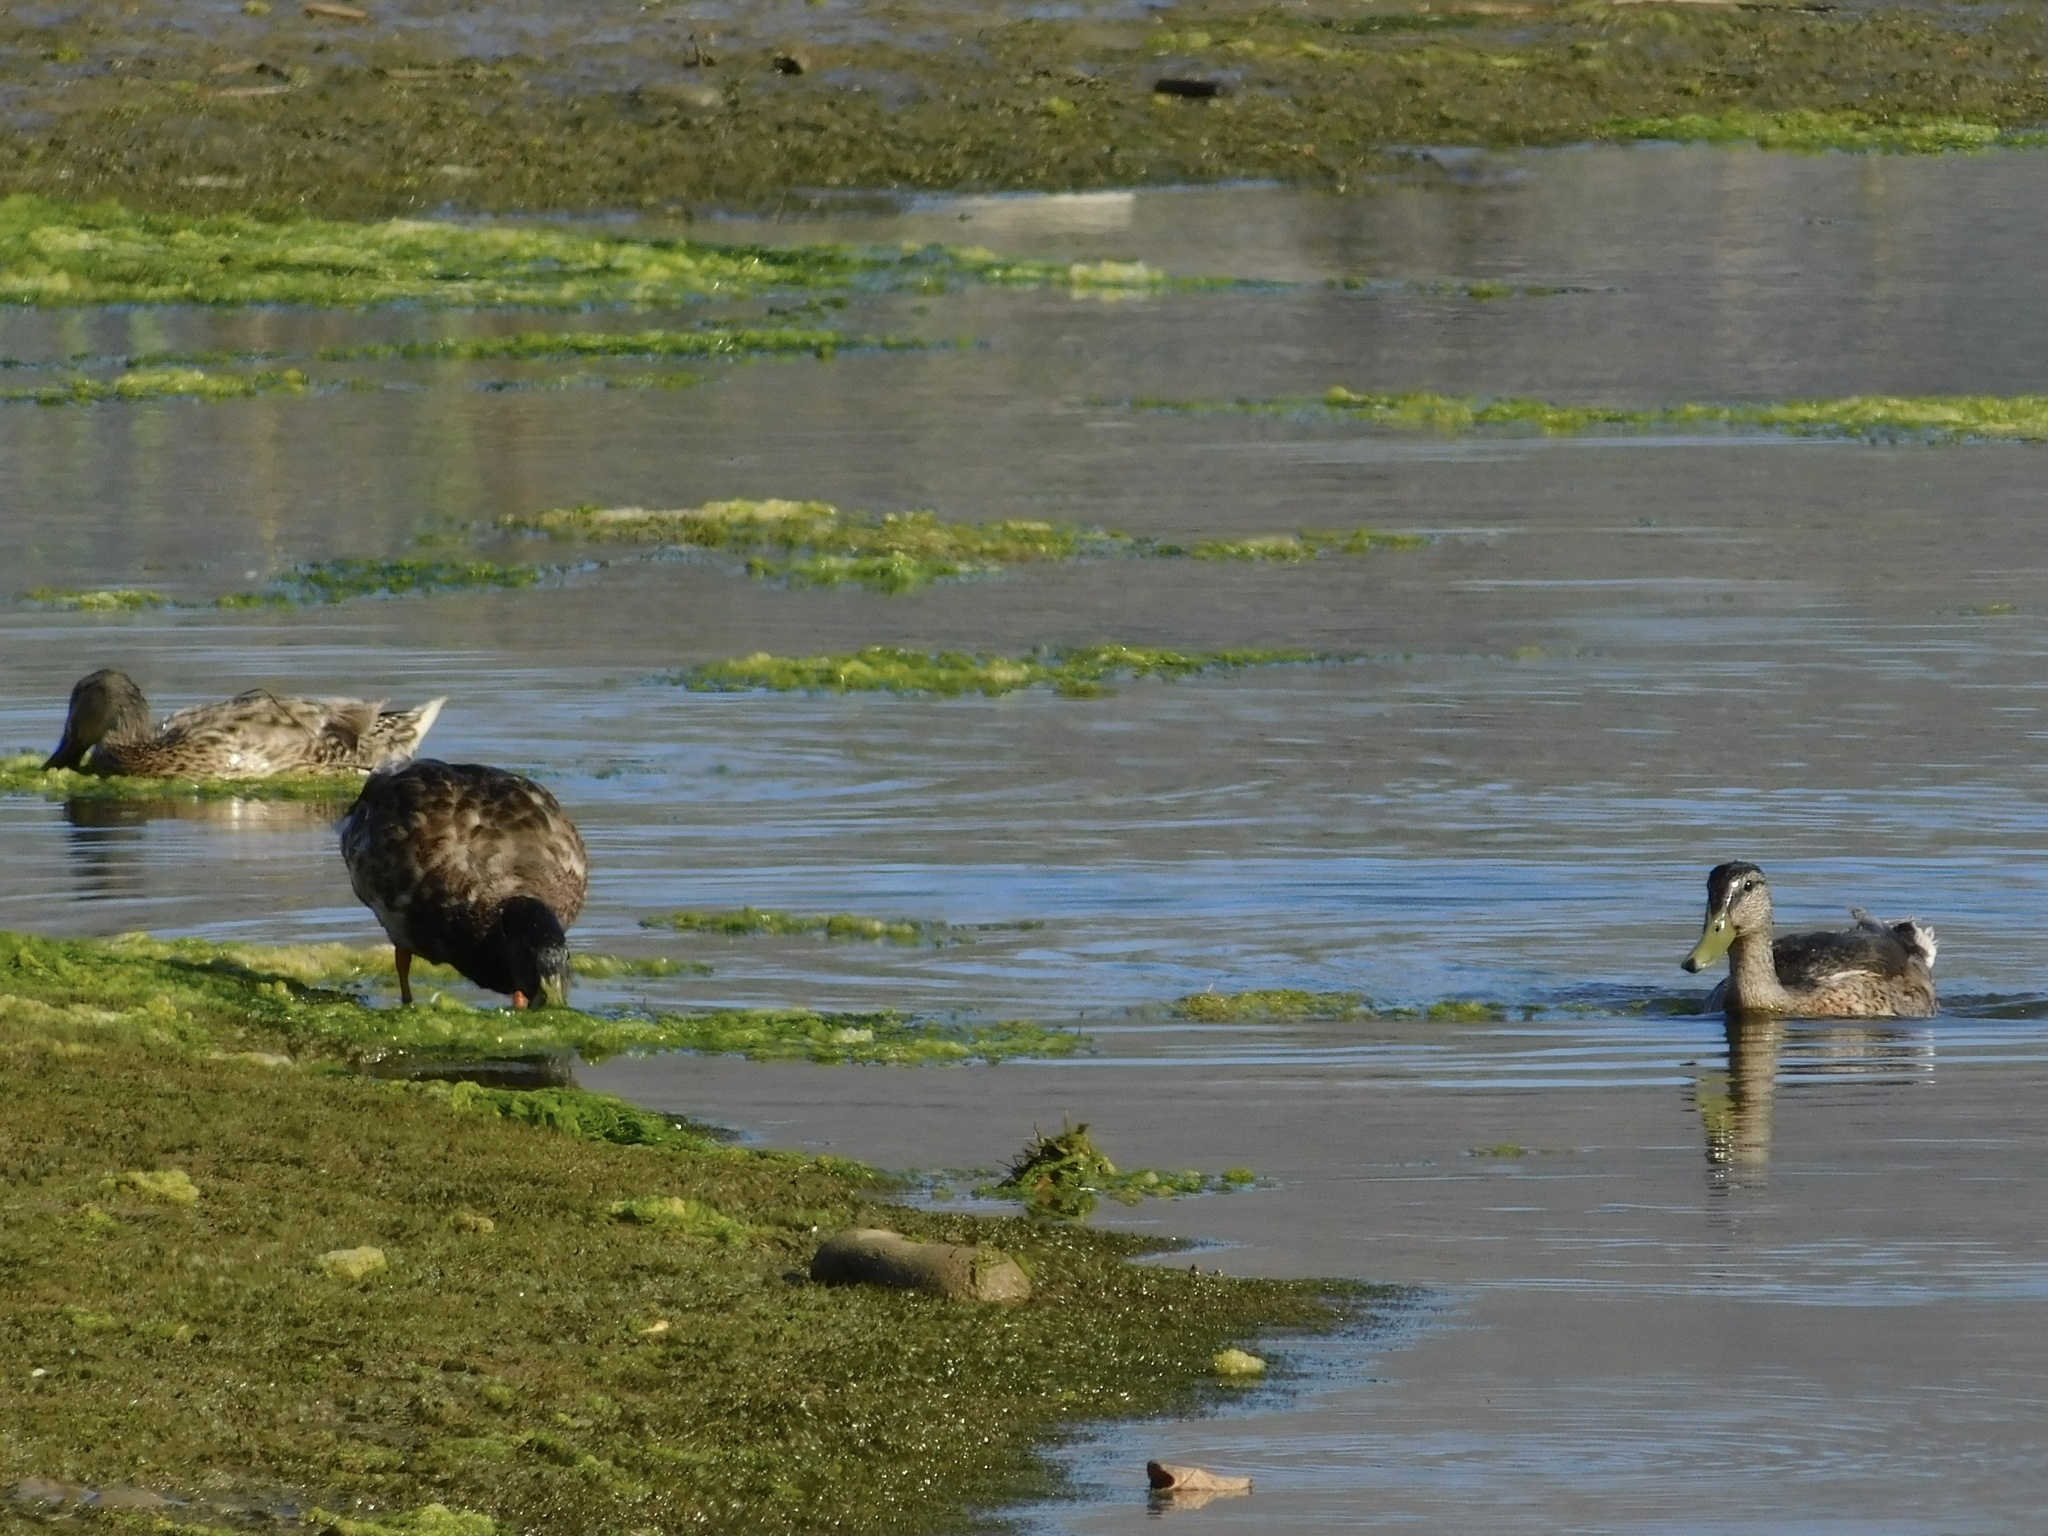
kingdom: Animalia
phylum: Chordata
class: Aves
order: Anseriformes
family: Anatidae
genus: Anas
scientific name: Anas platyrhynchos
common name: Mallard
